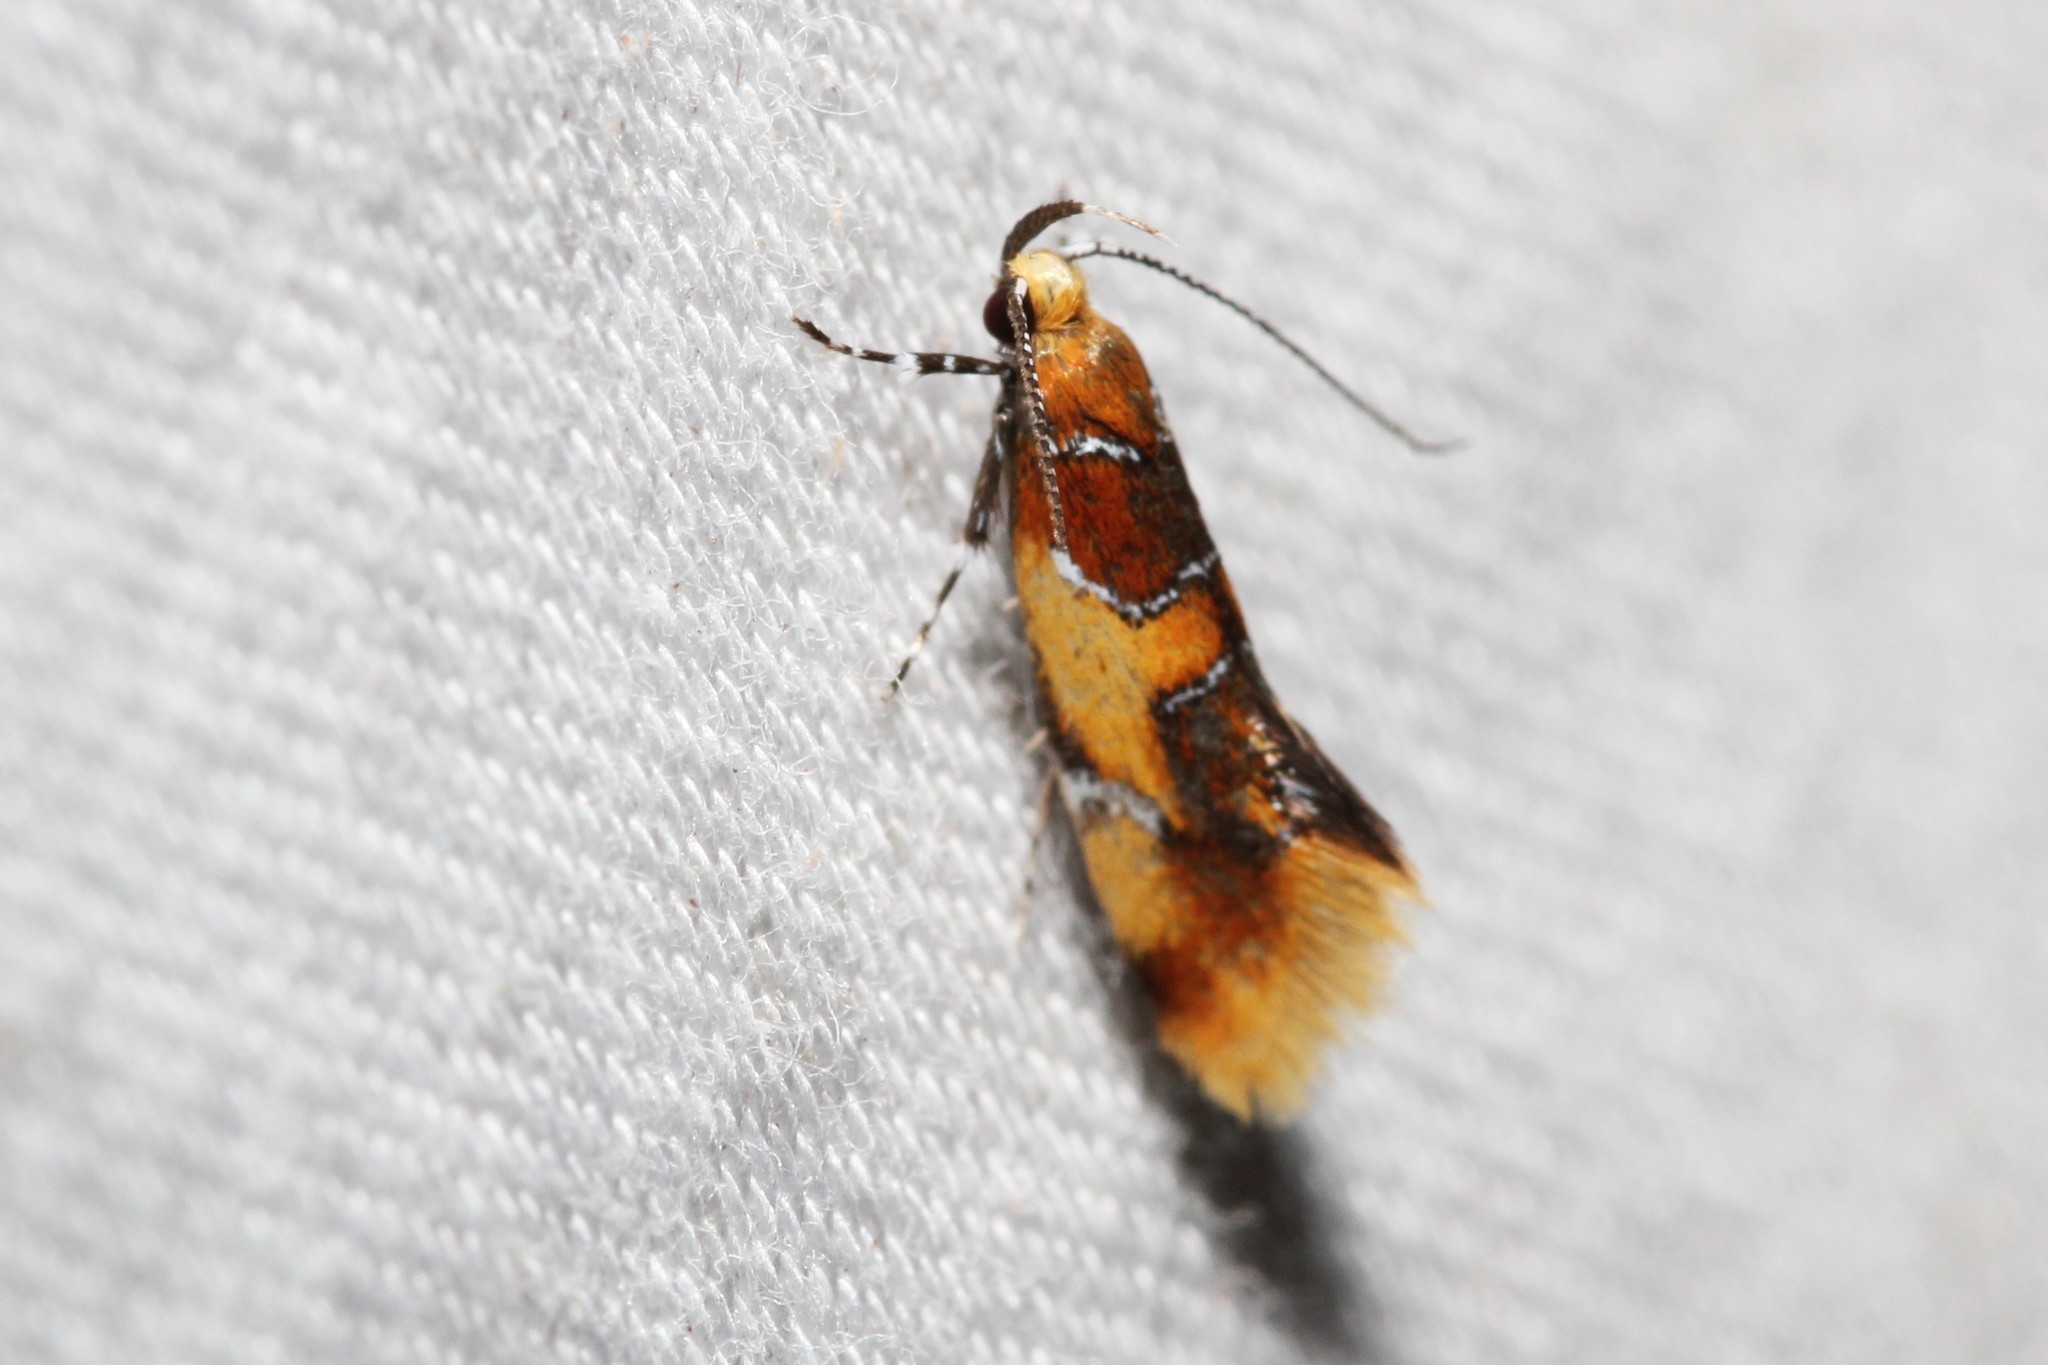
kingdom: Animalia
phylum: Arthropoda
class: Insecta
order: Lepidoptera
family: Oecophoridae
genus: Callima
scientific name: Callima argenticinctella
